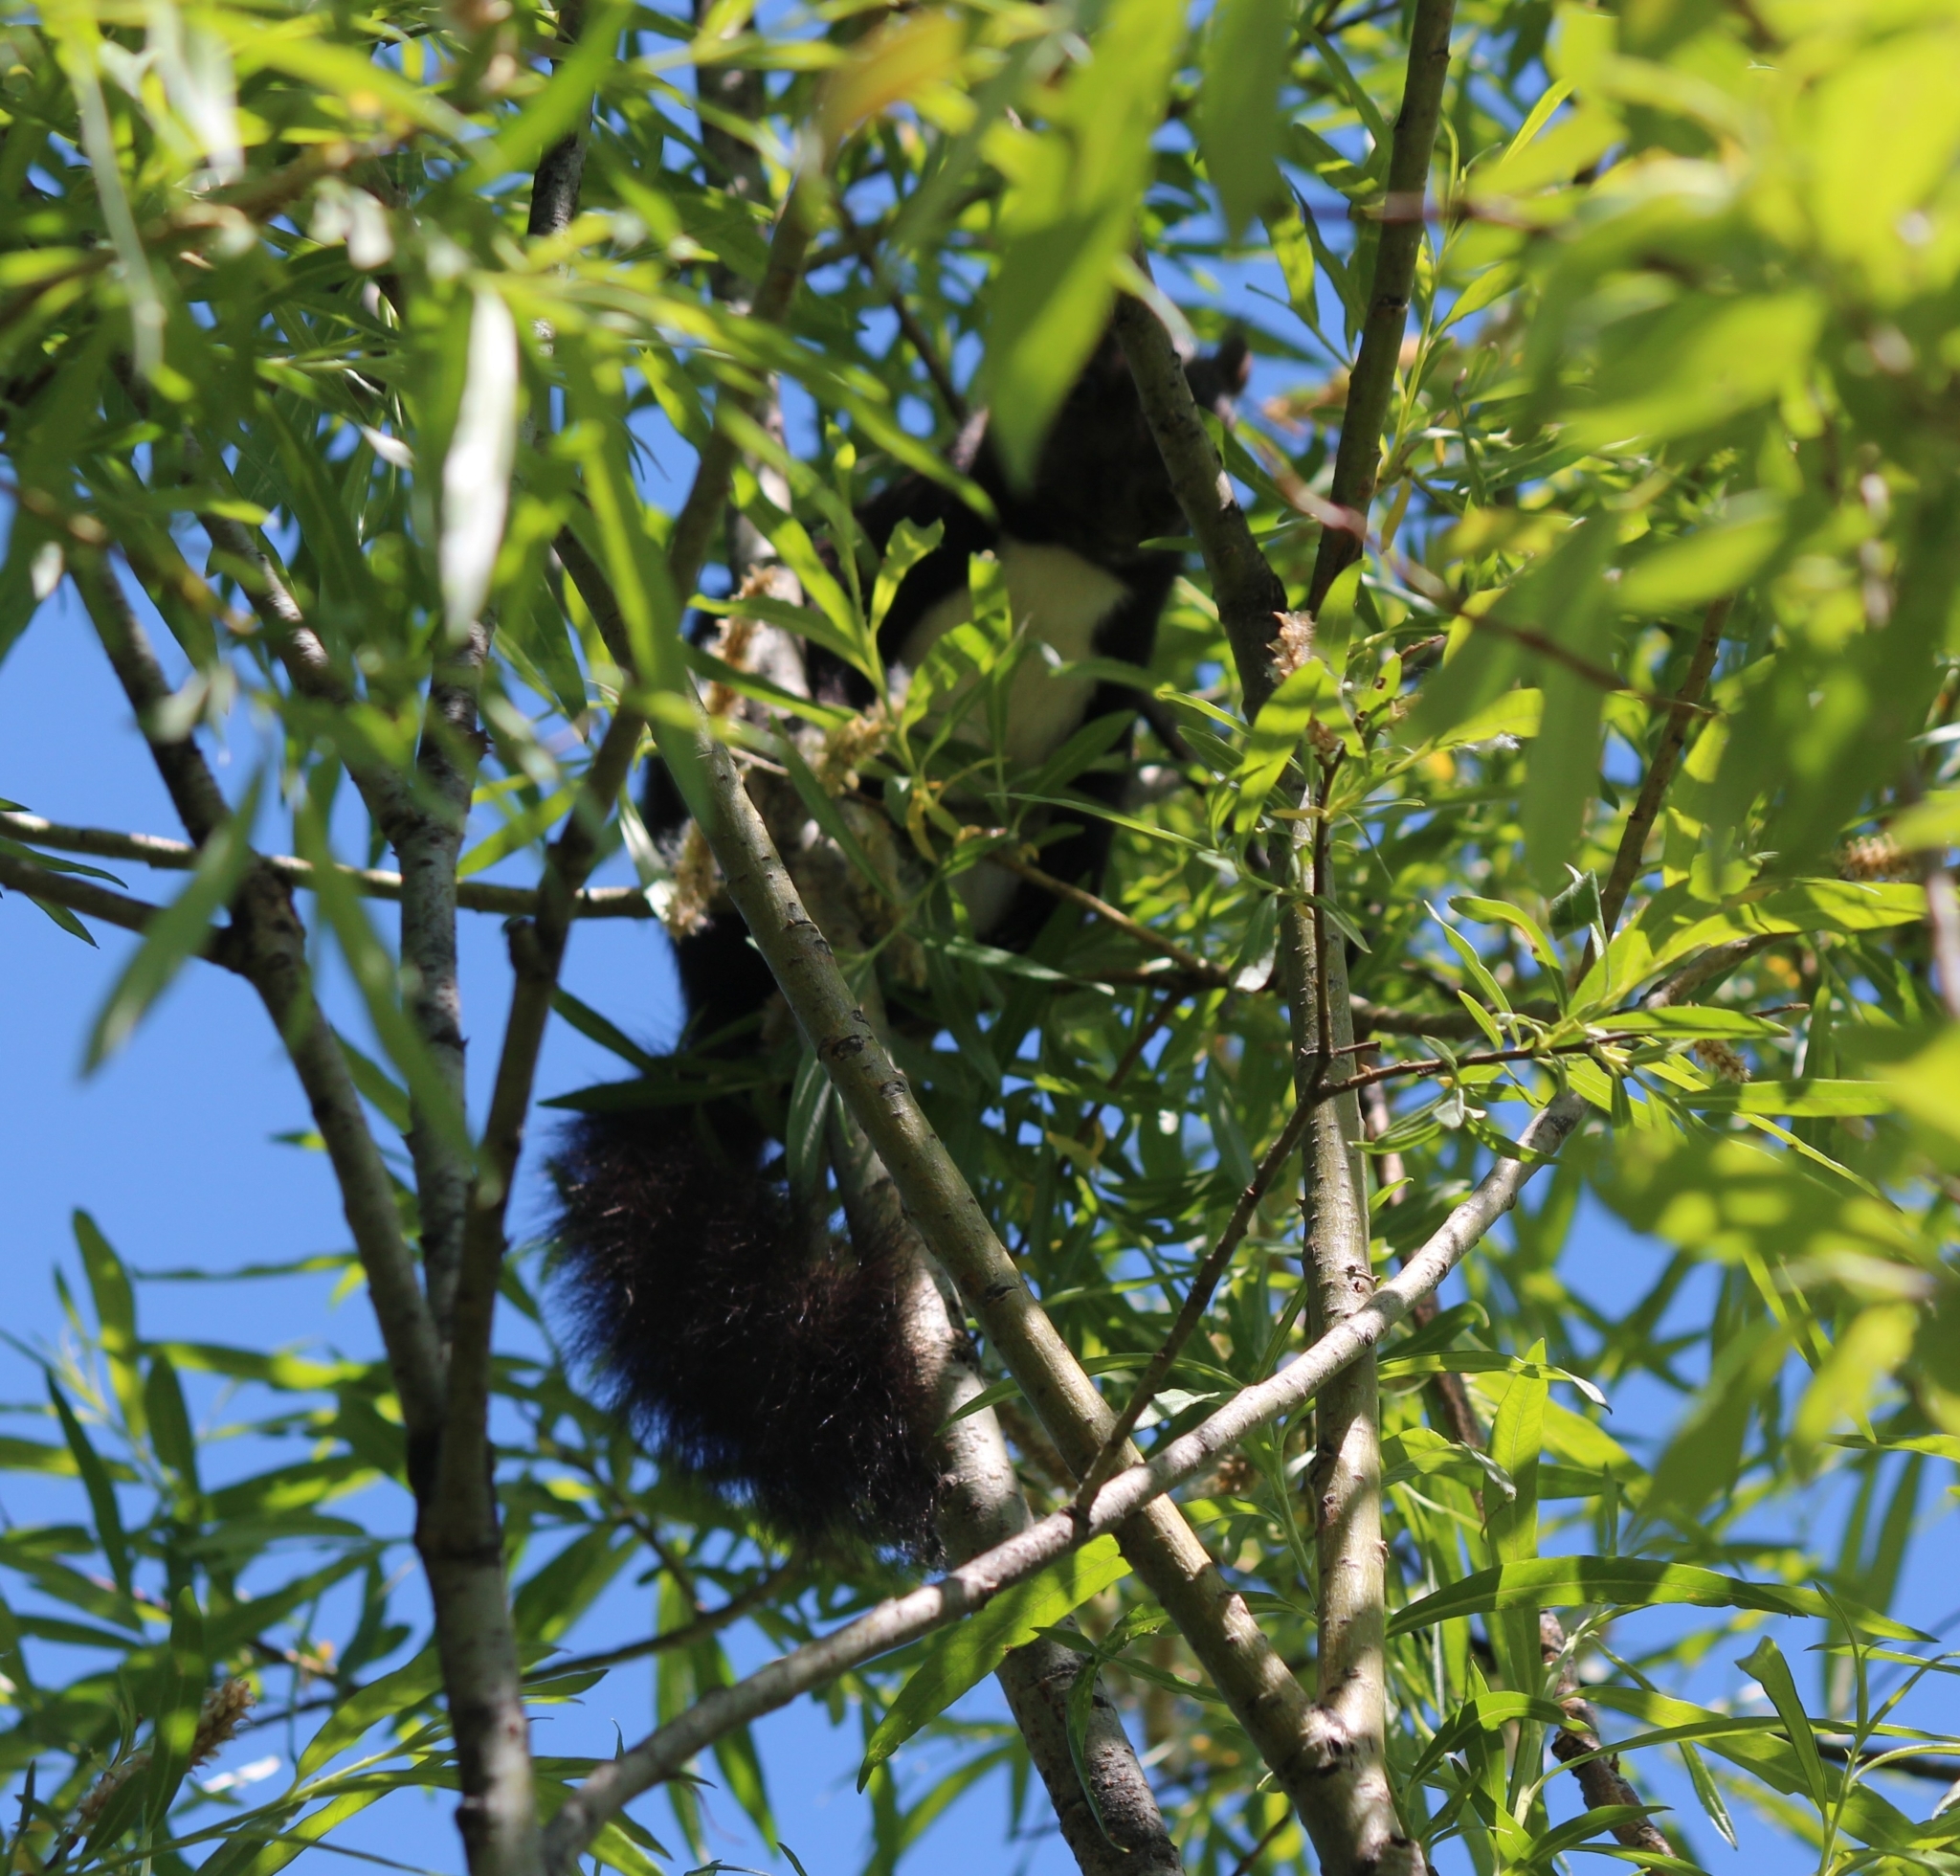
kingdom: Animalia
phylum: Chordata
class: Mammalia
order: Rodentia
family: Sciuridae
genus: Sciurus
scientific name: Sciurus vulgaris
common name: Eurasian red squirrel
